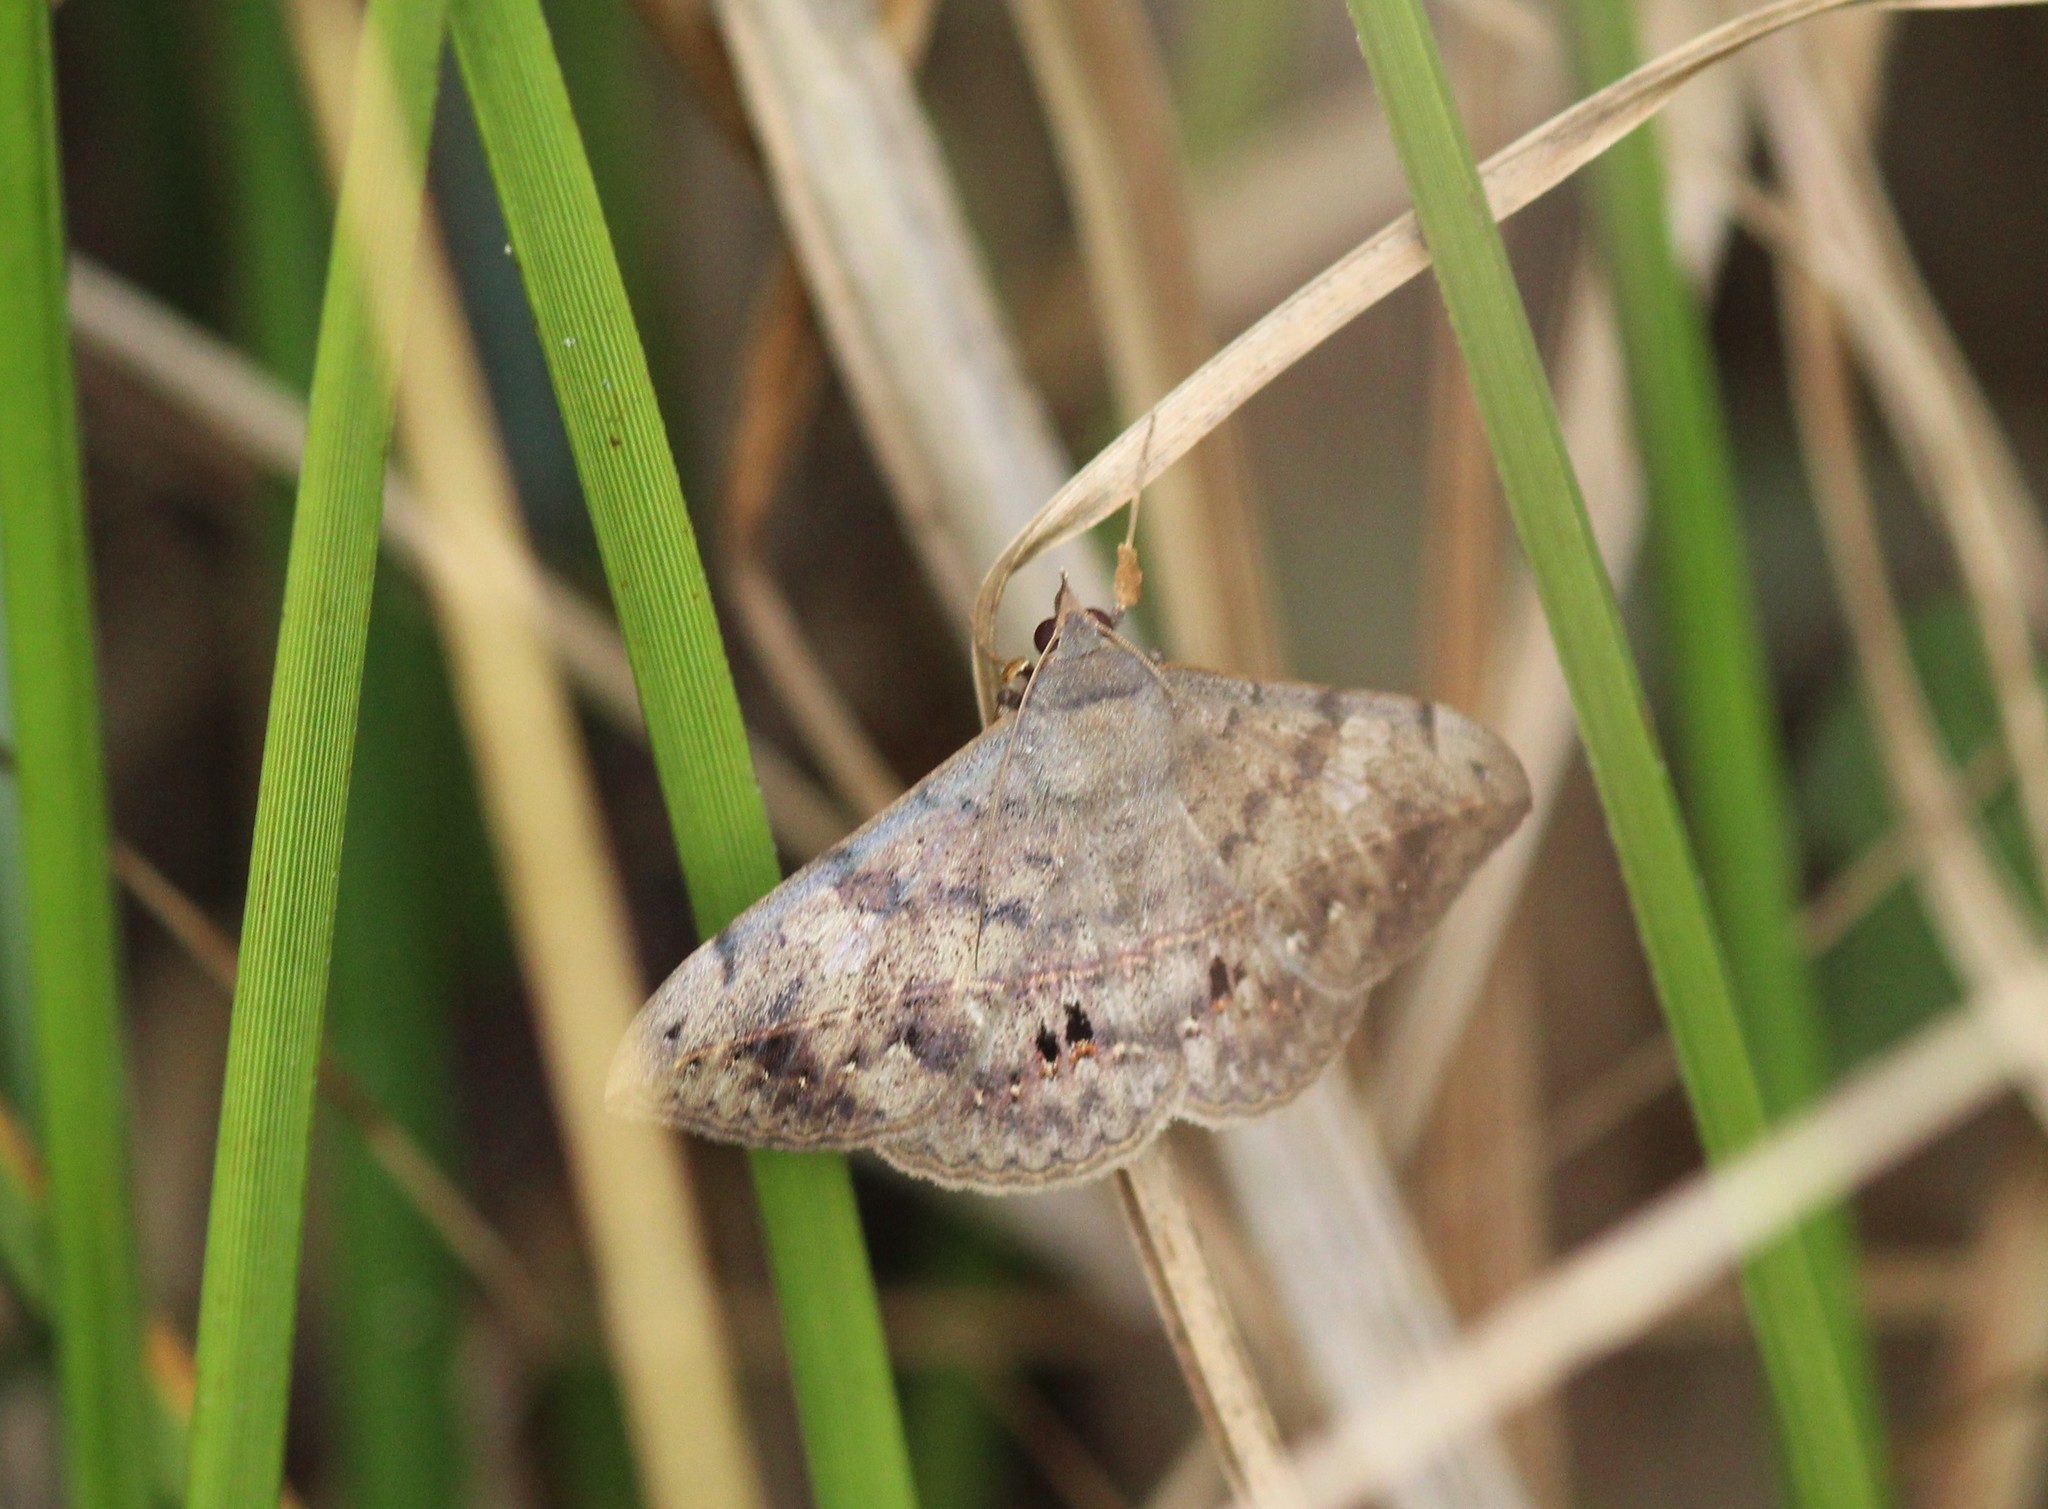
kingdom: Animalia
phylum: Arthropoda
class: Insecta
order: Lepidoptera
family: Erebidae
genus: Anticarsia
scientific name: Anticarsia gemmatalis
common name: Cutworm moth
